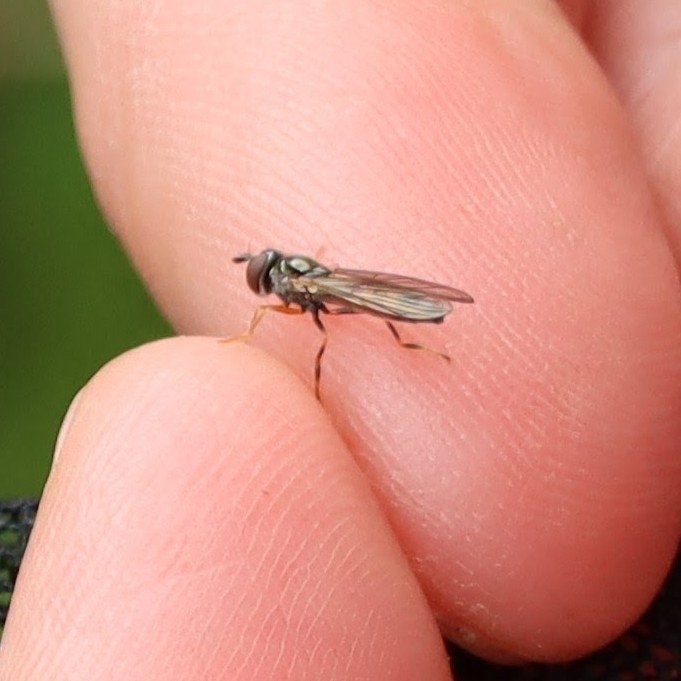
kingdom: Animalia
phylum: Arthropoda
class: Insecta
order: Diptera
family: Syrphidae
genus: Platycheirus
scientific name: Platycheirus
